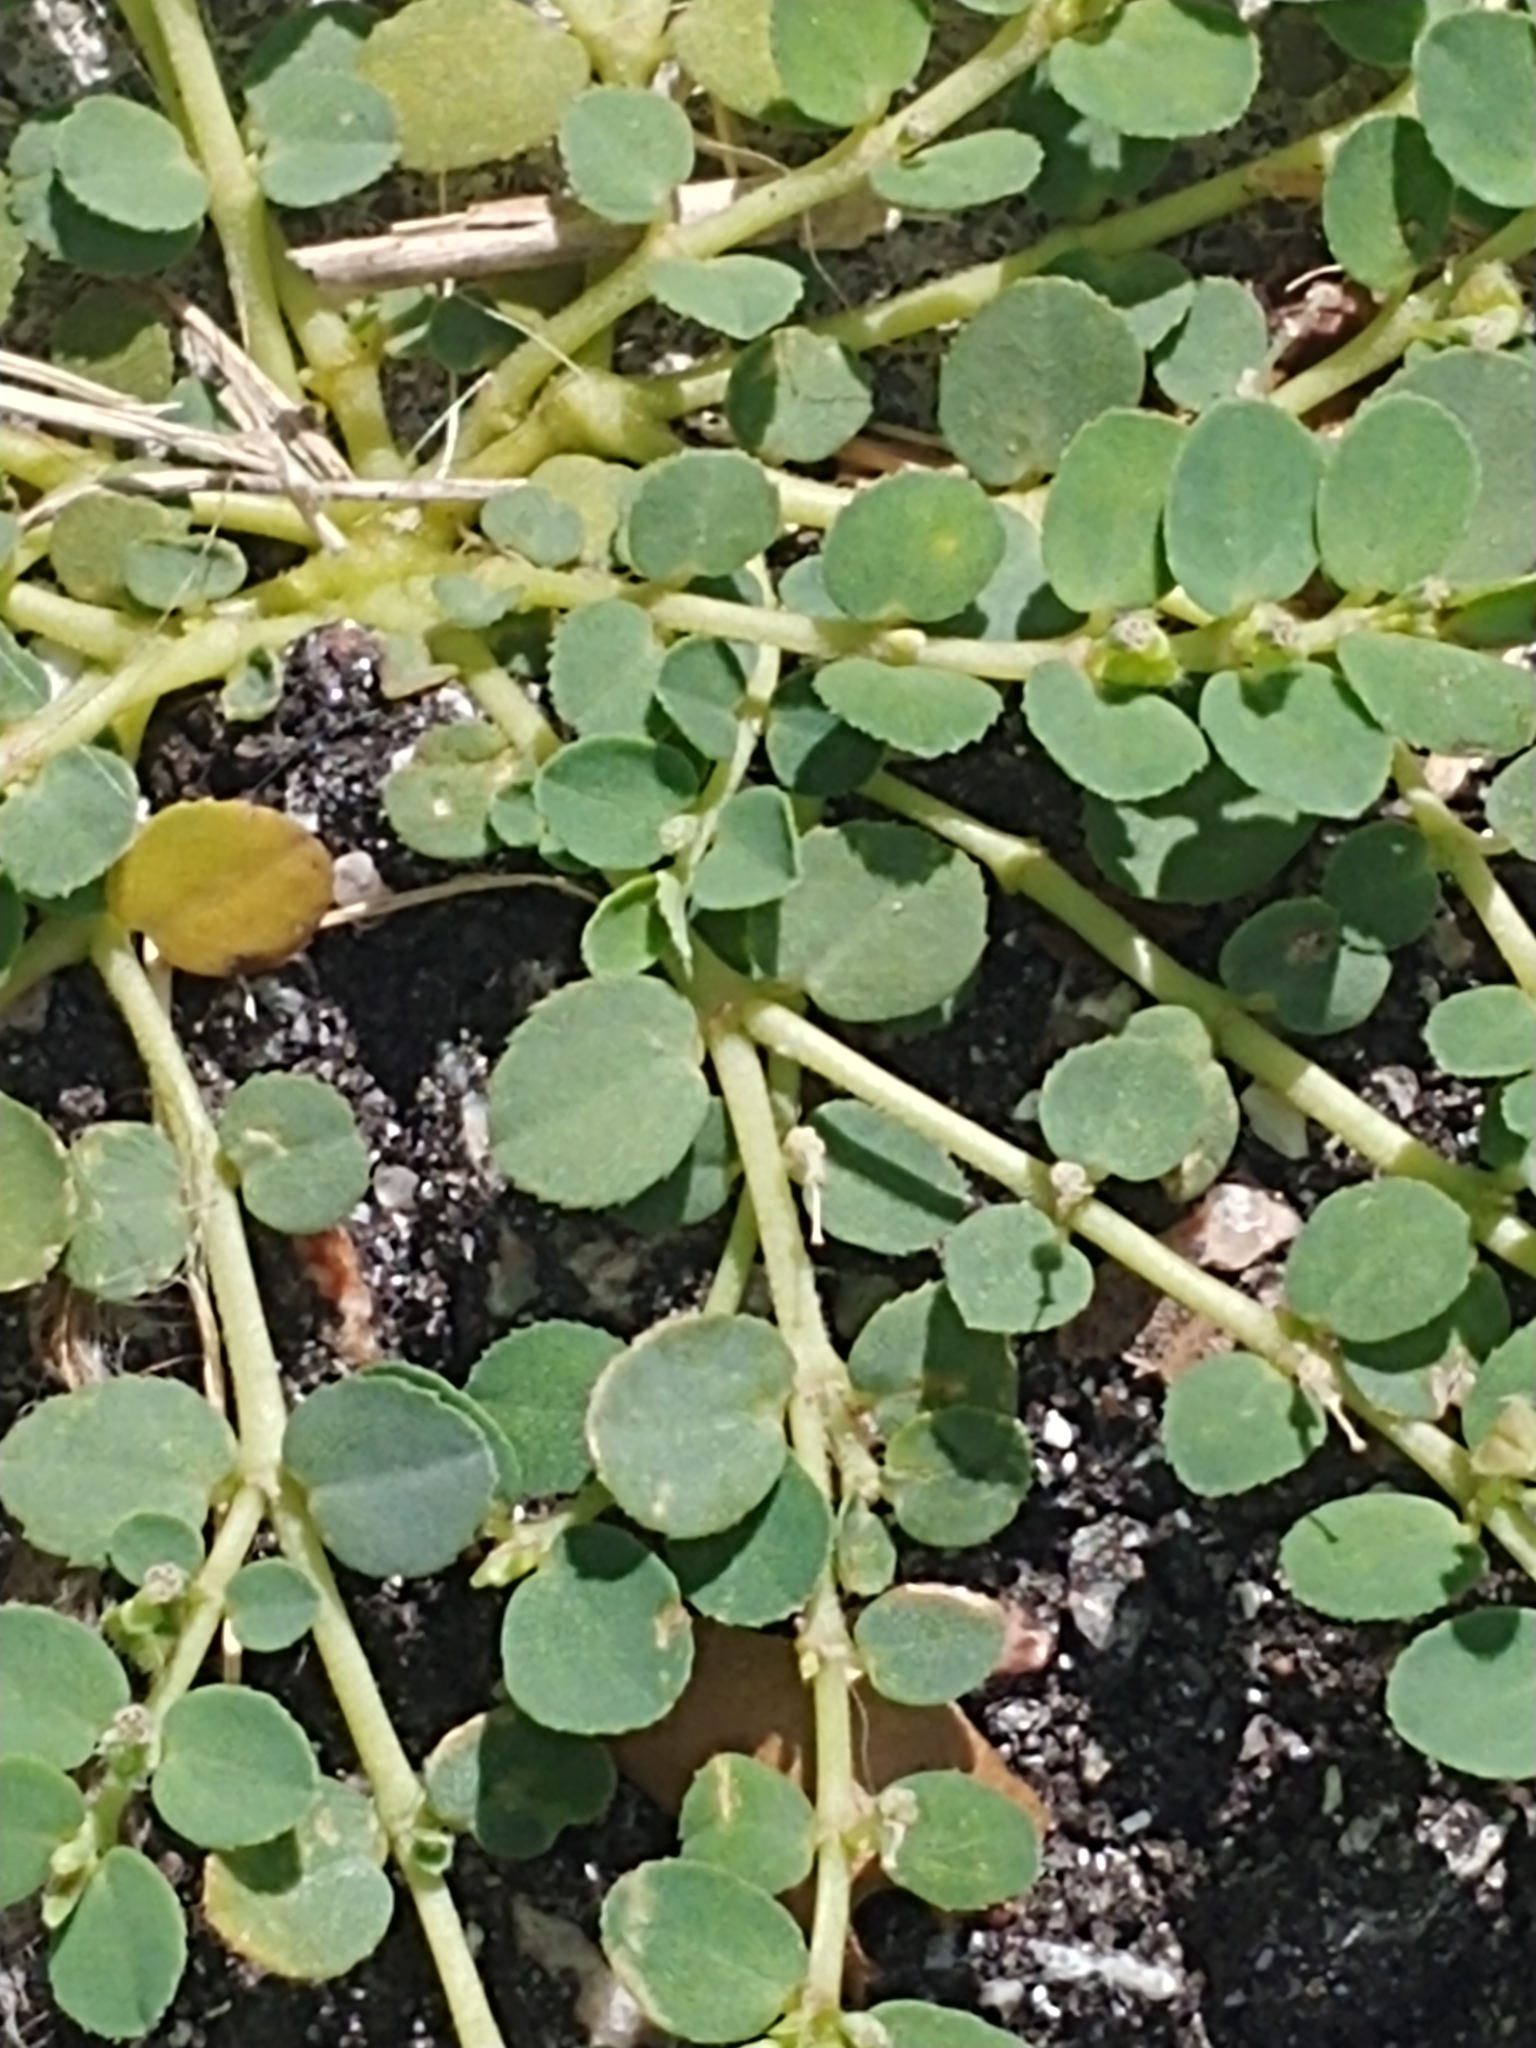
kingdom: Plantae
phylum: Tracheophyta
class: Magnoliopsida
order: Malpighiales
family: Euphorbiaceae
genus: Euphorbia
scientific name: Euphorbia prostrata
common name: Prostrate sandmat
